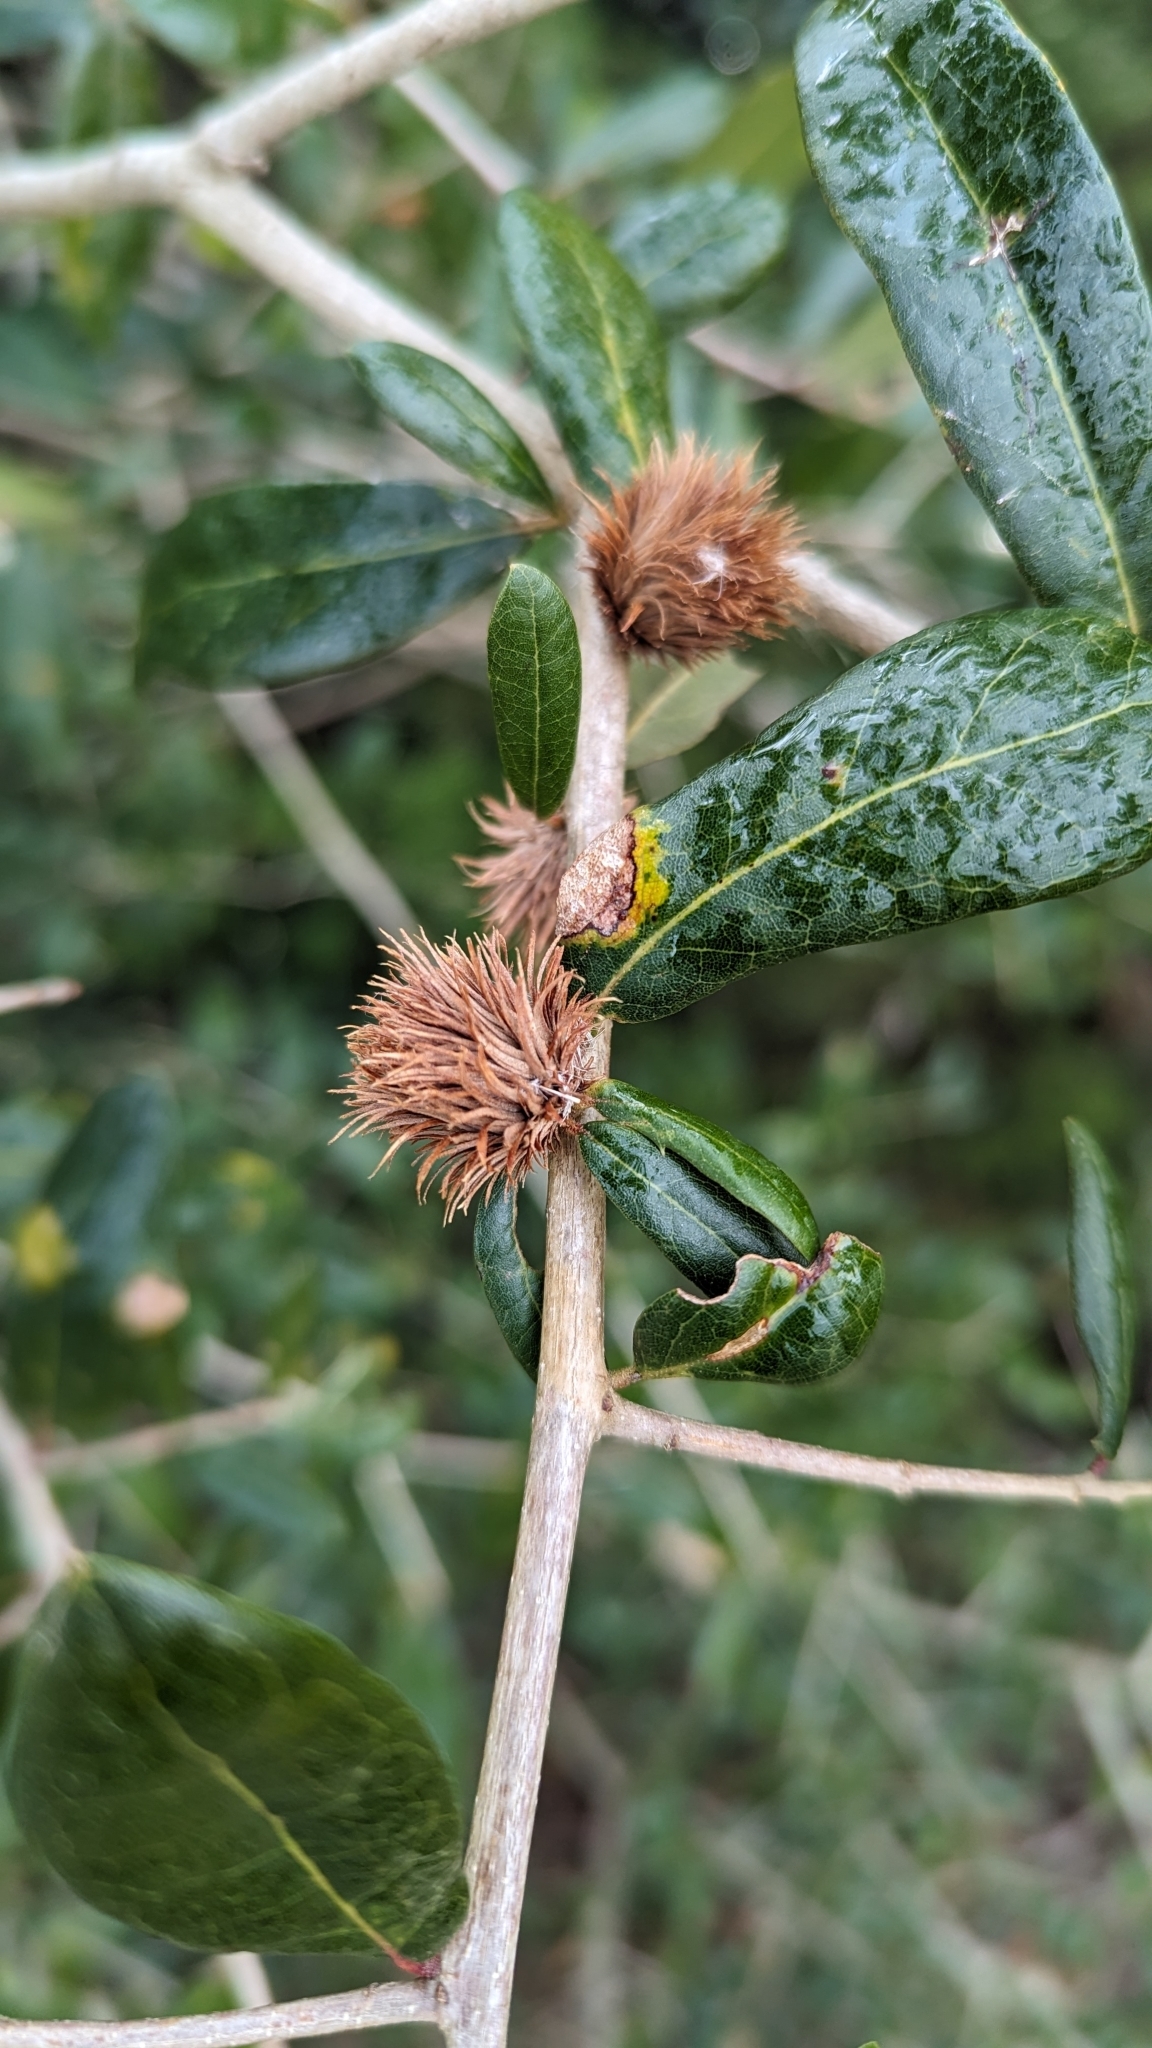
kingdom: Animalia
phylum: Arthropoda
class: Insecta
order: Hymenoptera
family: Cynipidae
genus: Andricus
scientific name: Andricus quercusfoliatus
